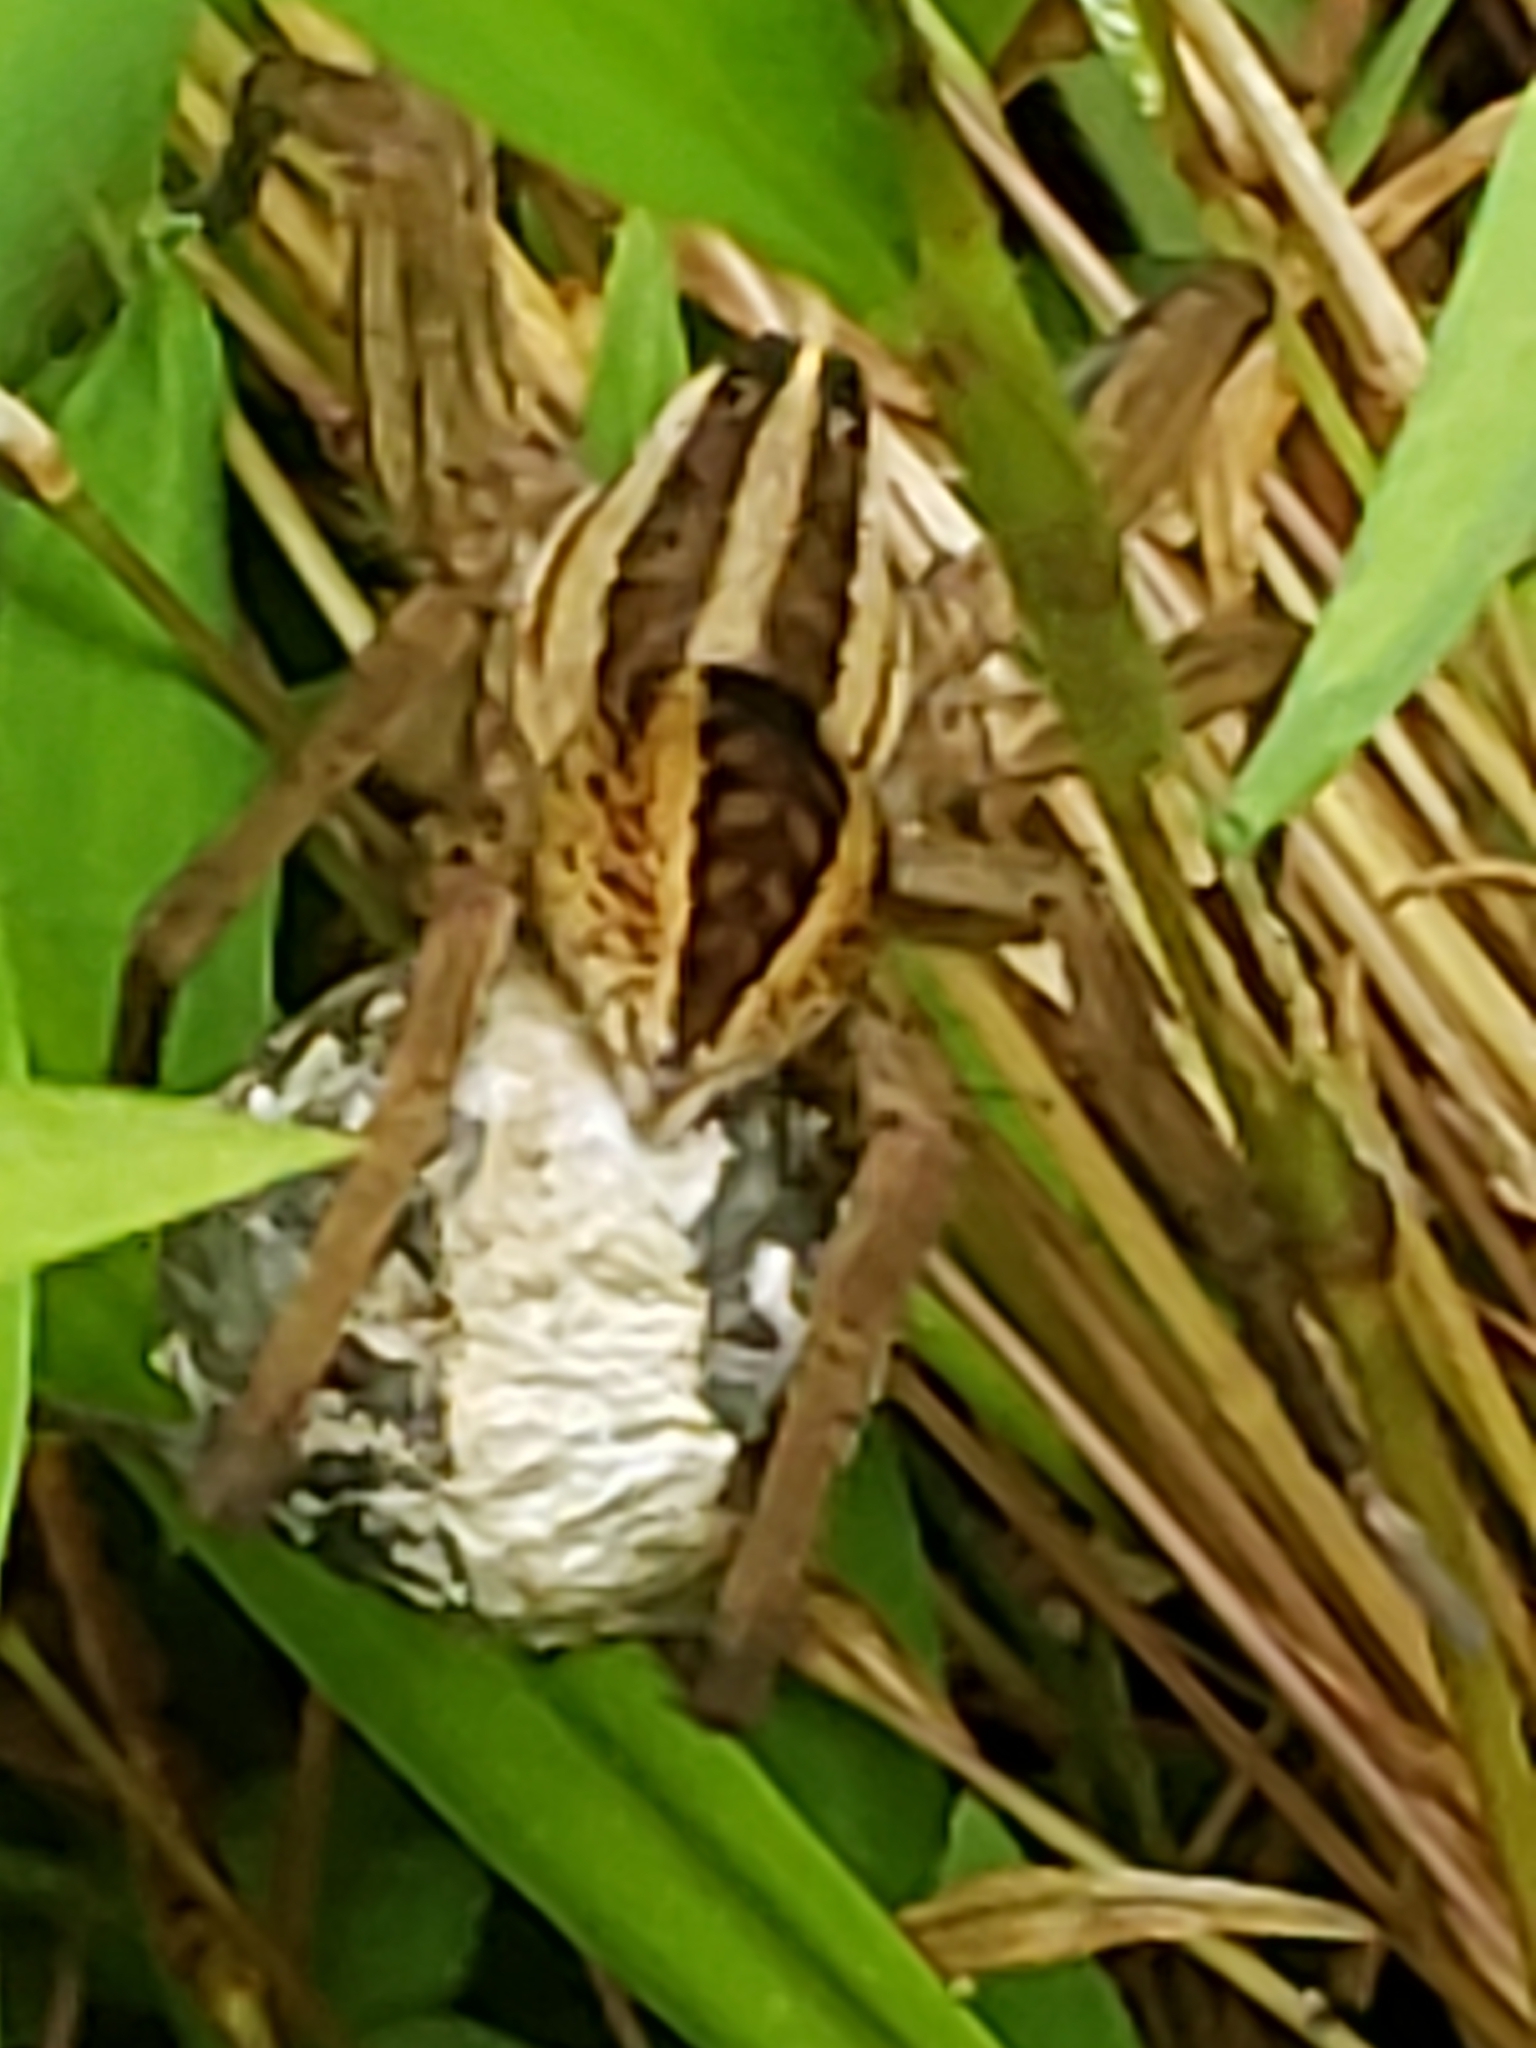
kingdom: Animalia
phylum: Arthropoda
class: Arachnida
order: Araneae
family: Lycosidae
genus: Rabidosa
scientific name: Rabidosa rabida
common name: Rabid wolf spider
